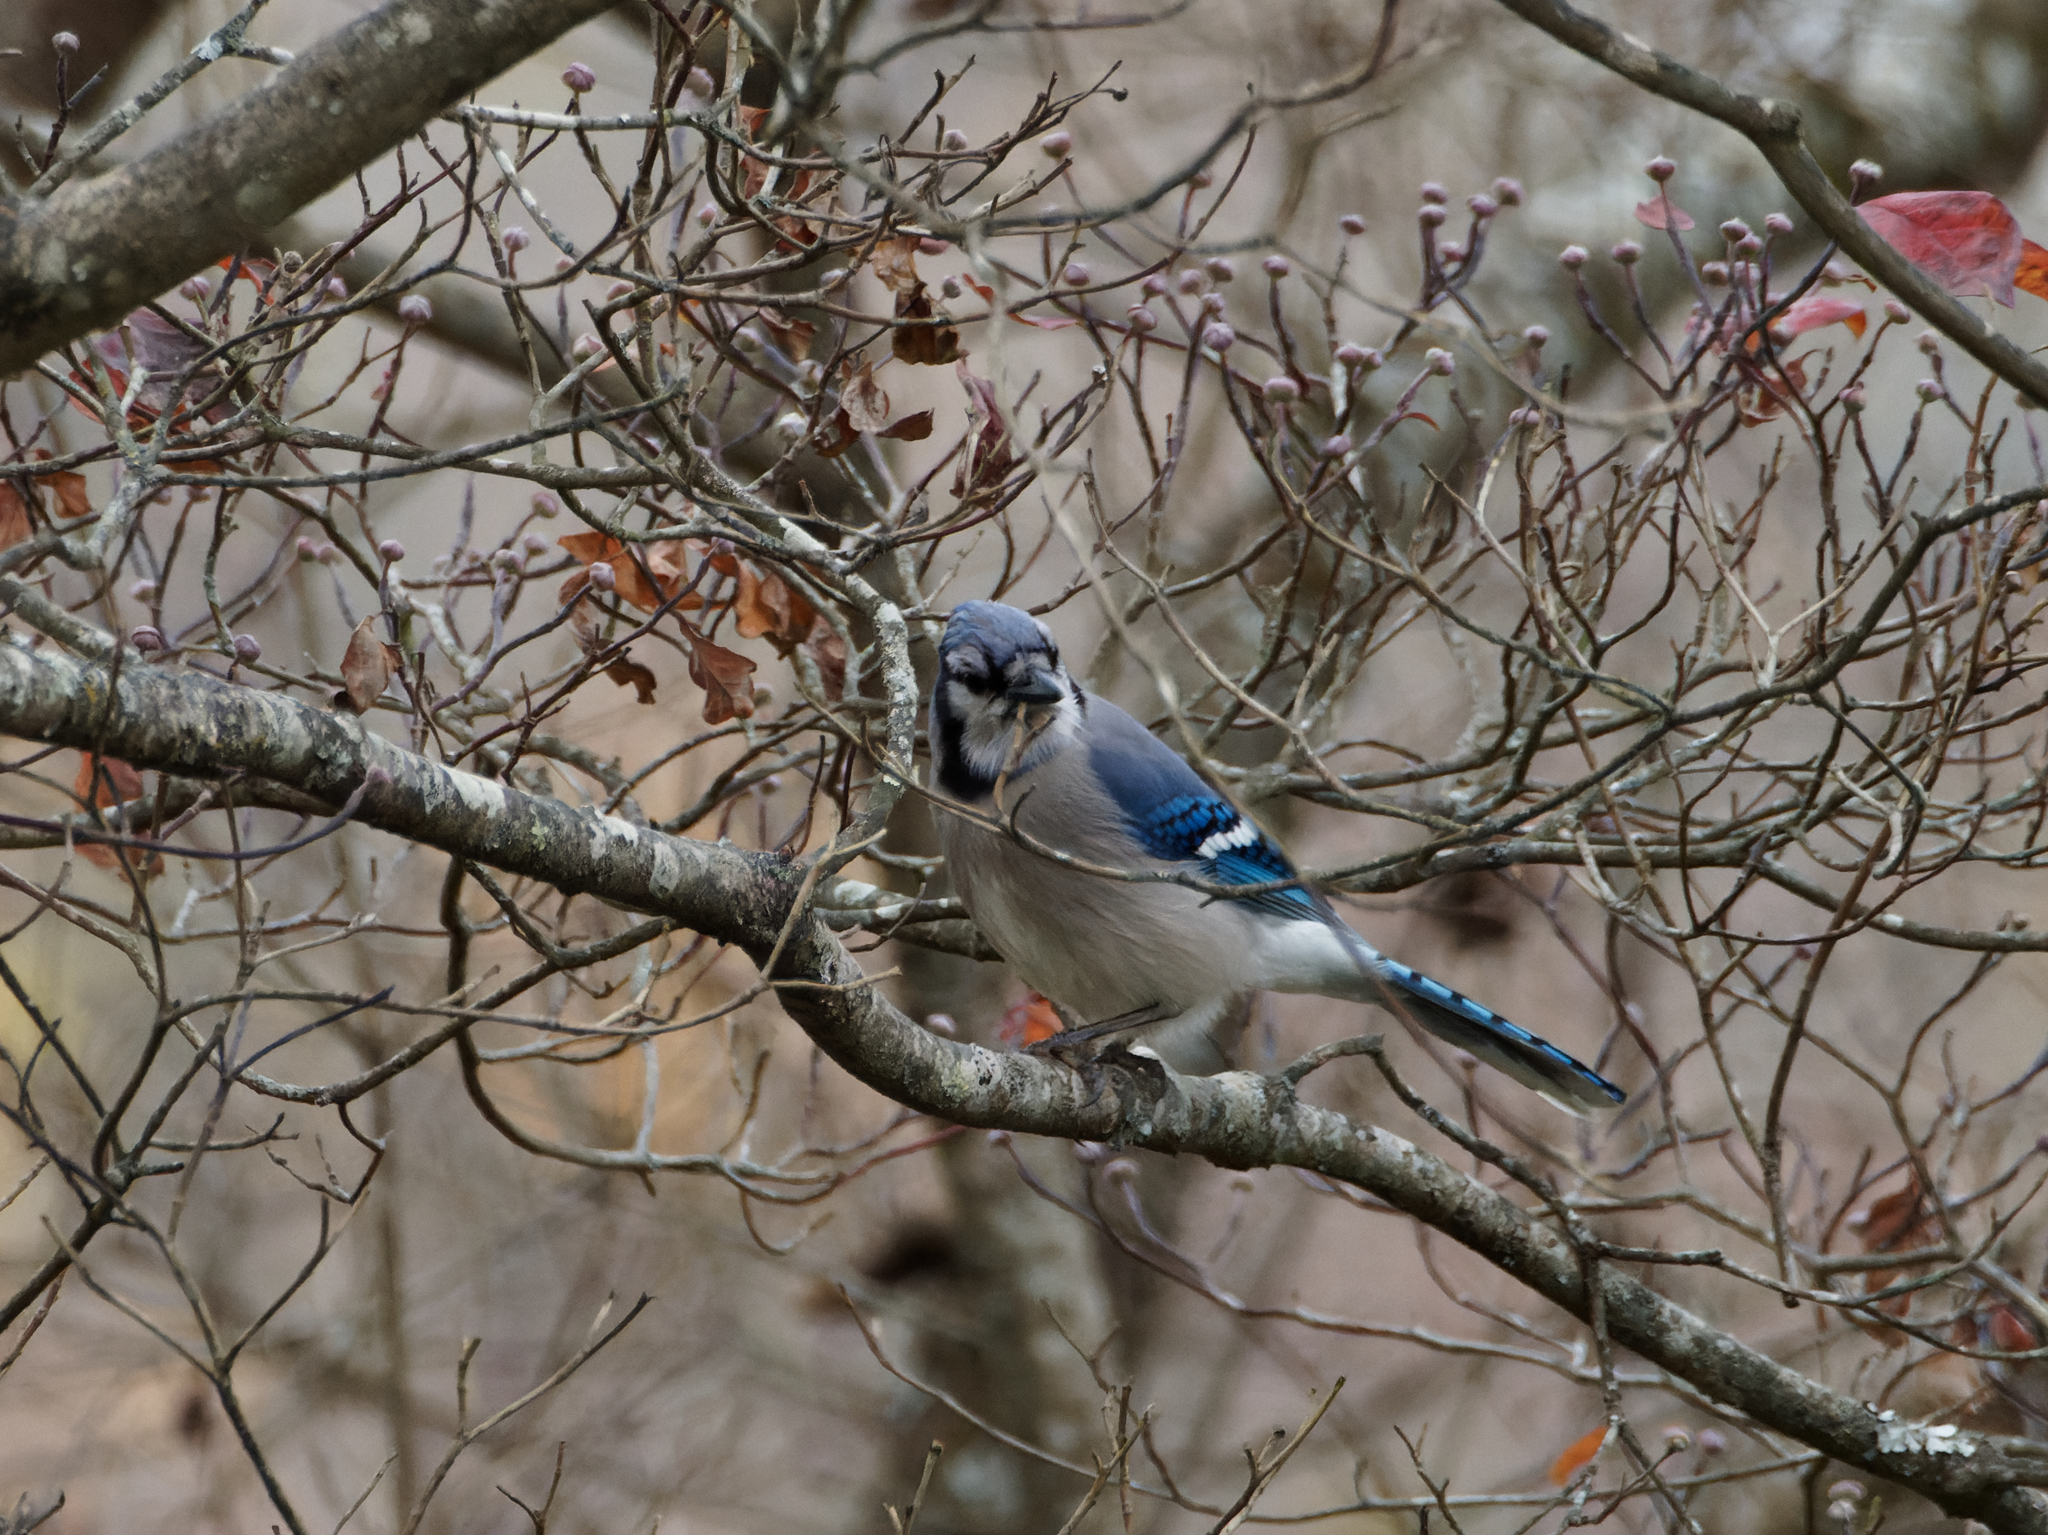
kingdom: Animalia
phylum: Chordata
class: Aves
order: Passeriformes
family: Corvidae
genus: Cyanocitta
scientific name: Cyanocitta cristata
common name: Blue jay
